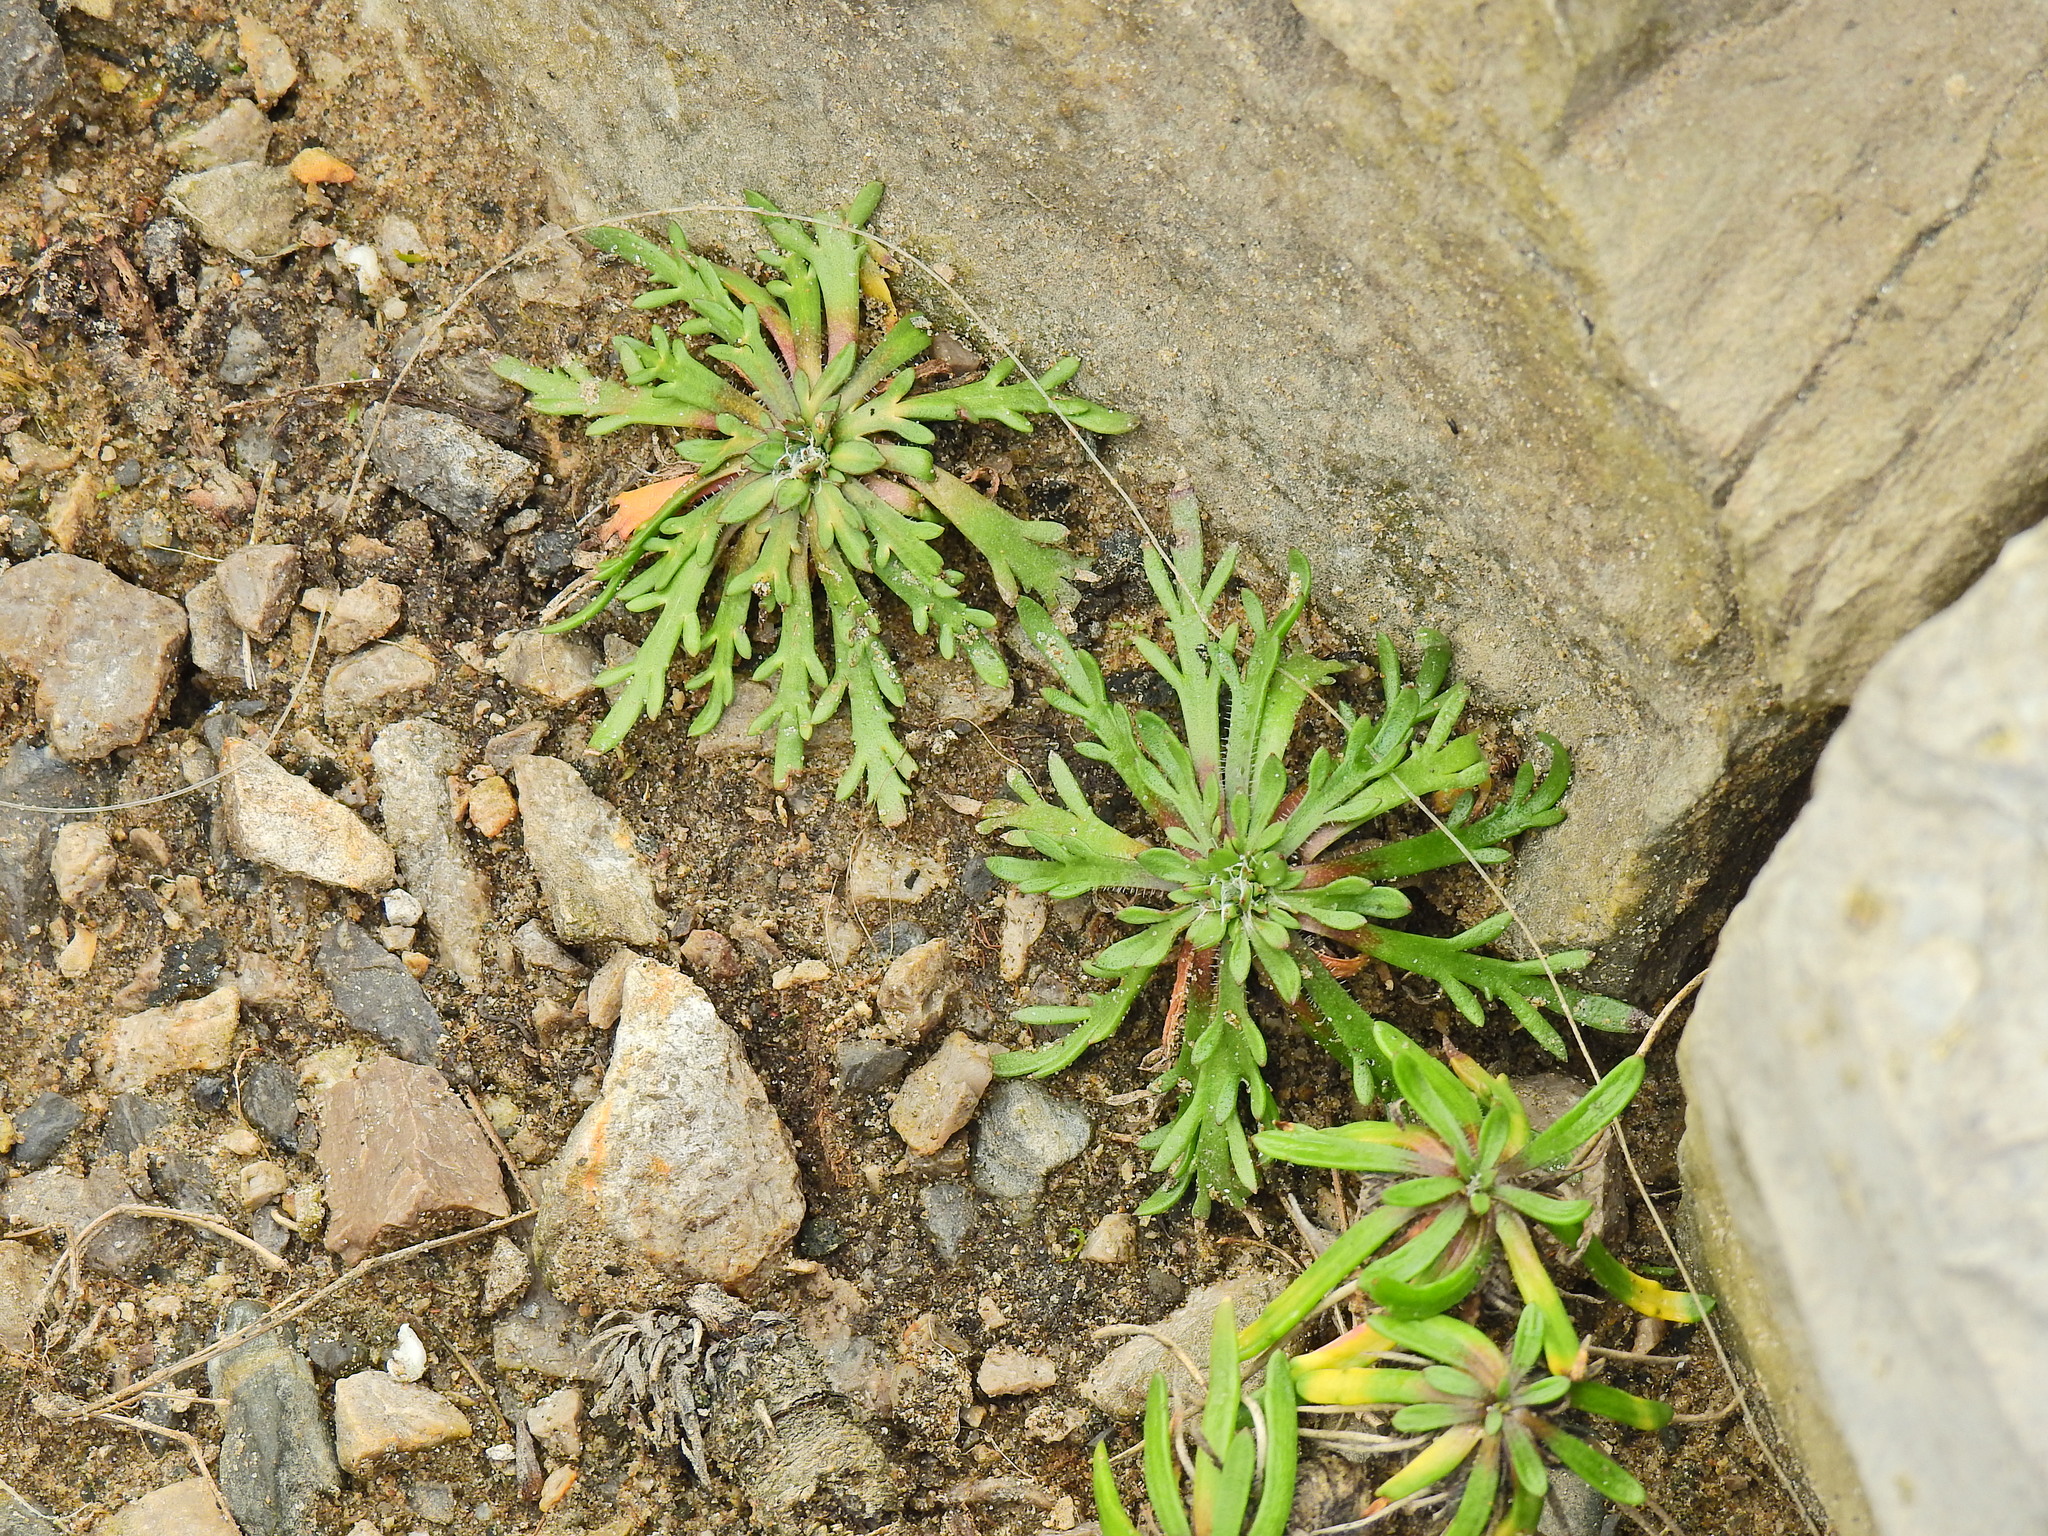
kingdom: Plantae
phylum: Tracheophyta
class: Magnoliopsida
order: Lamiales
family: Plantaginaceae
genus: Plantago
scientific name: Plantago coronopus
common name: Buck's-horn plantain
